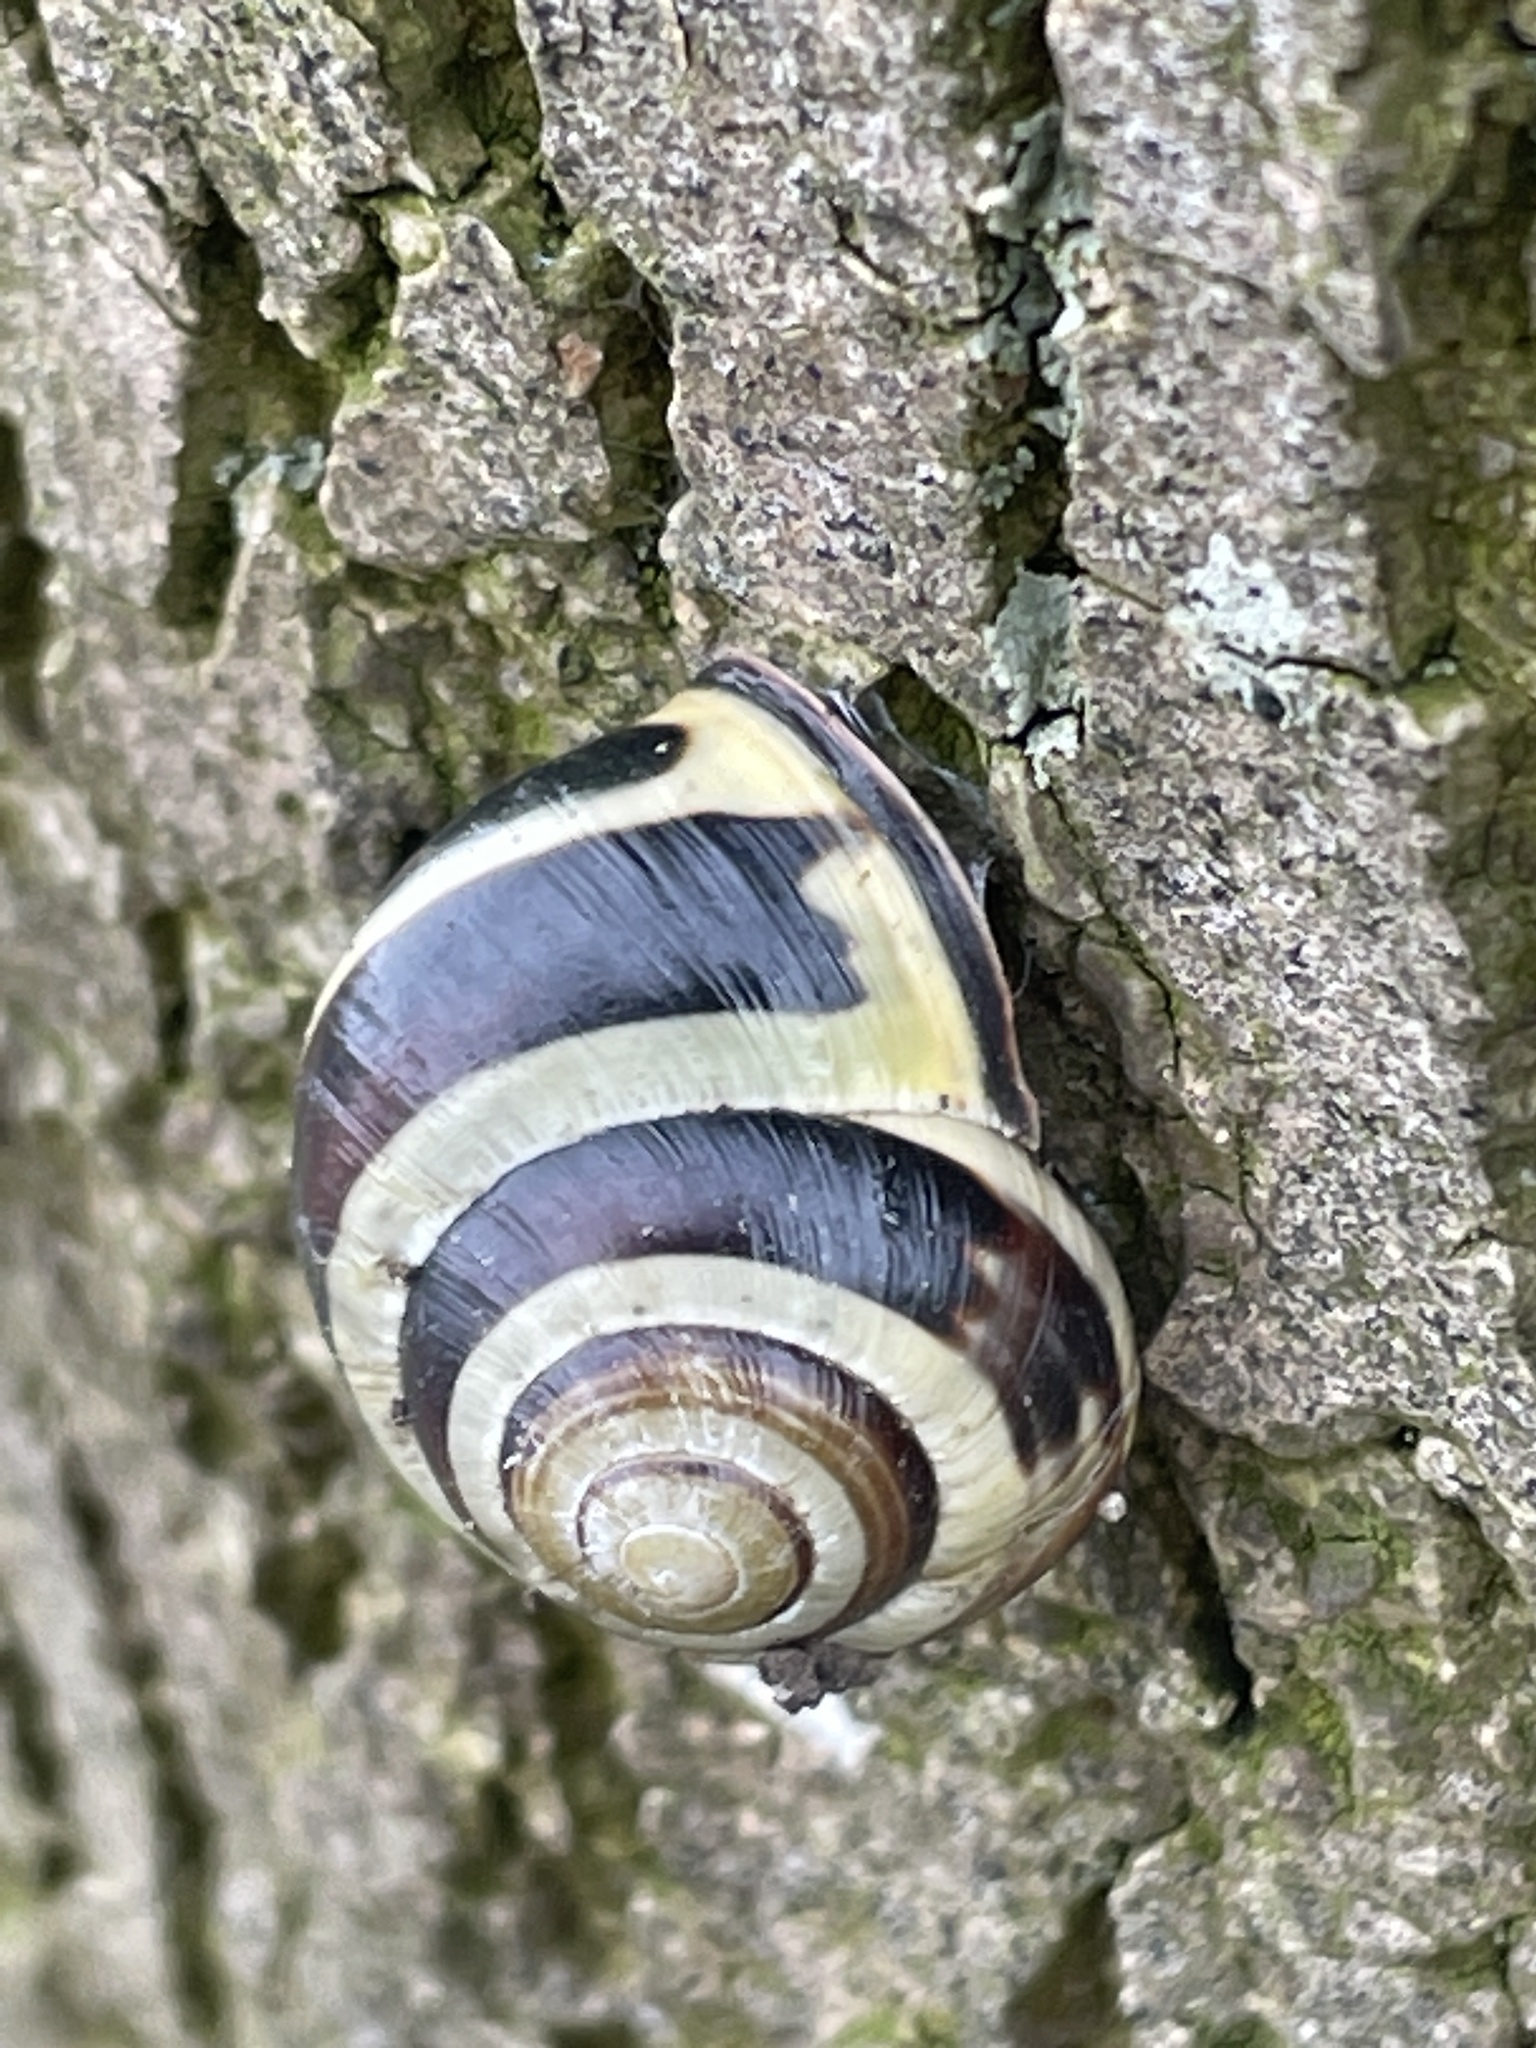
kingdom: Animalia
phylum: Mollusca
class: Gastropoda
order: Stylommatophora
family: Helicidae
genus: Cepaea
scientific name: Cepaea nemoralis
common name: Grovesnail
